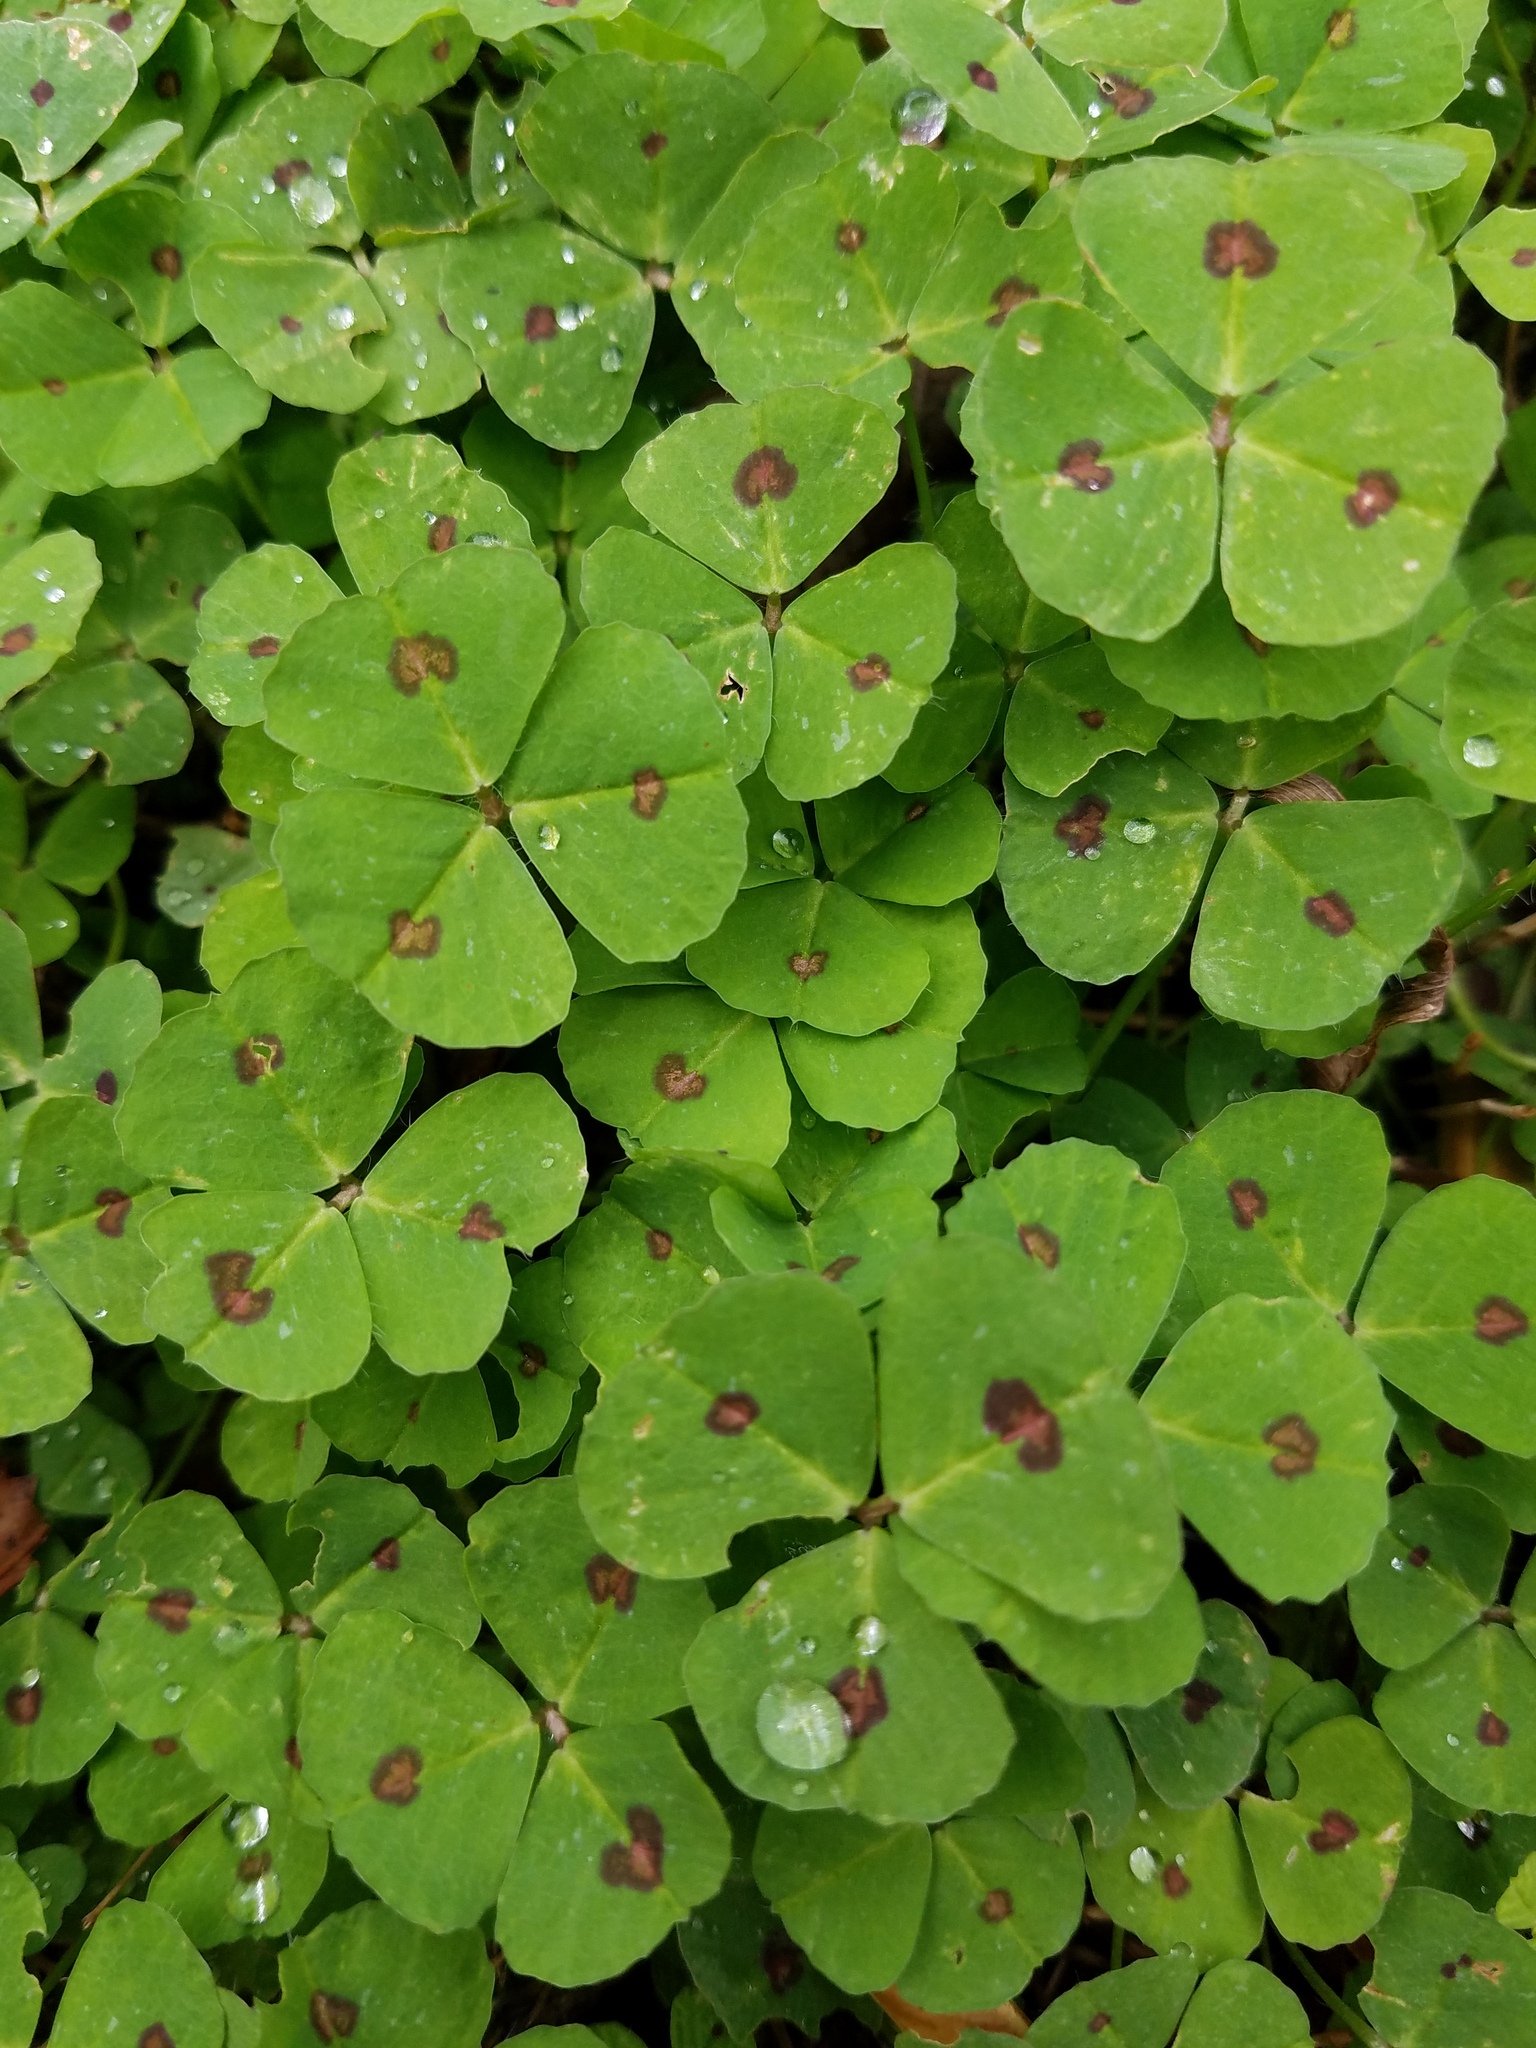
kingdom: Plantae
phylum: Tracheophyta
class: Magnoliopsida
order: Fabales
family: Fabaceae
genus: Medicago
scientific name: Medicago arabica
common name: Spotted medick
